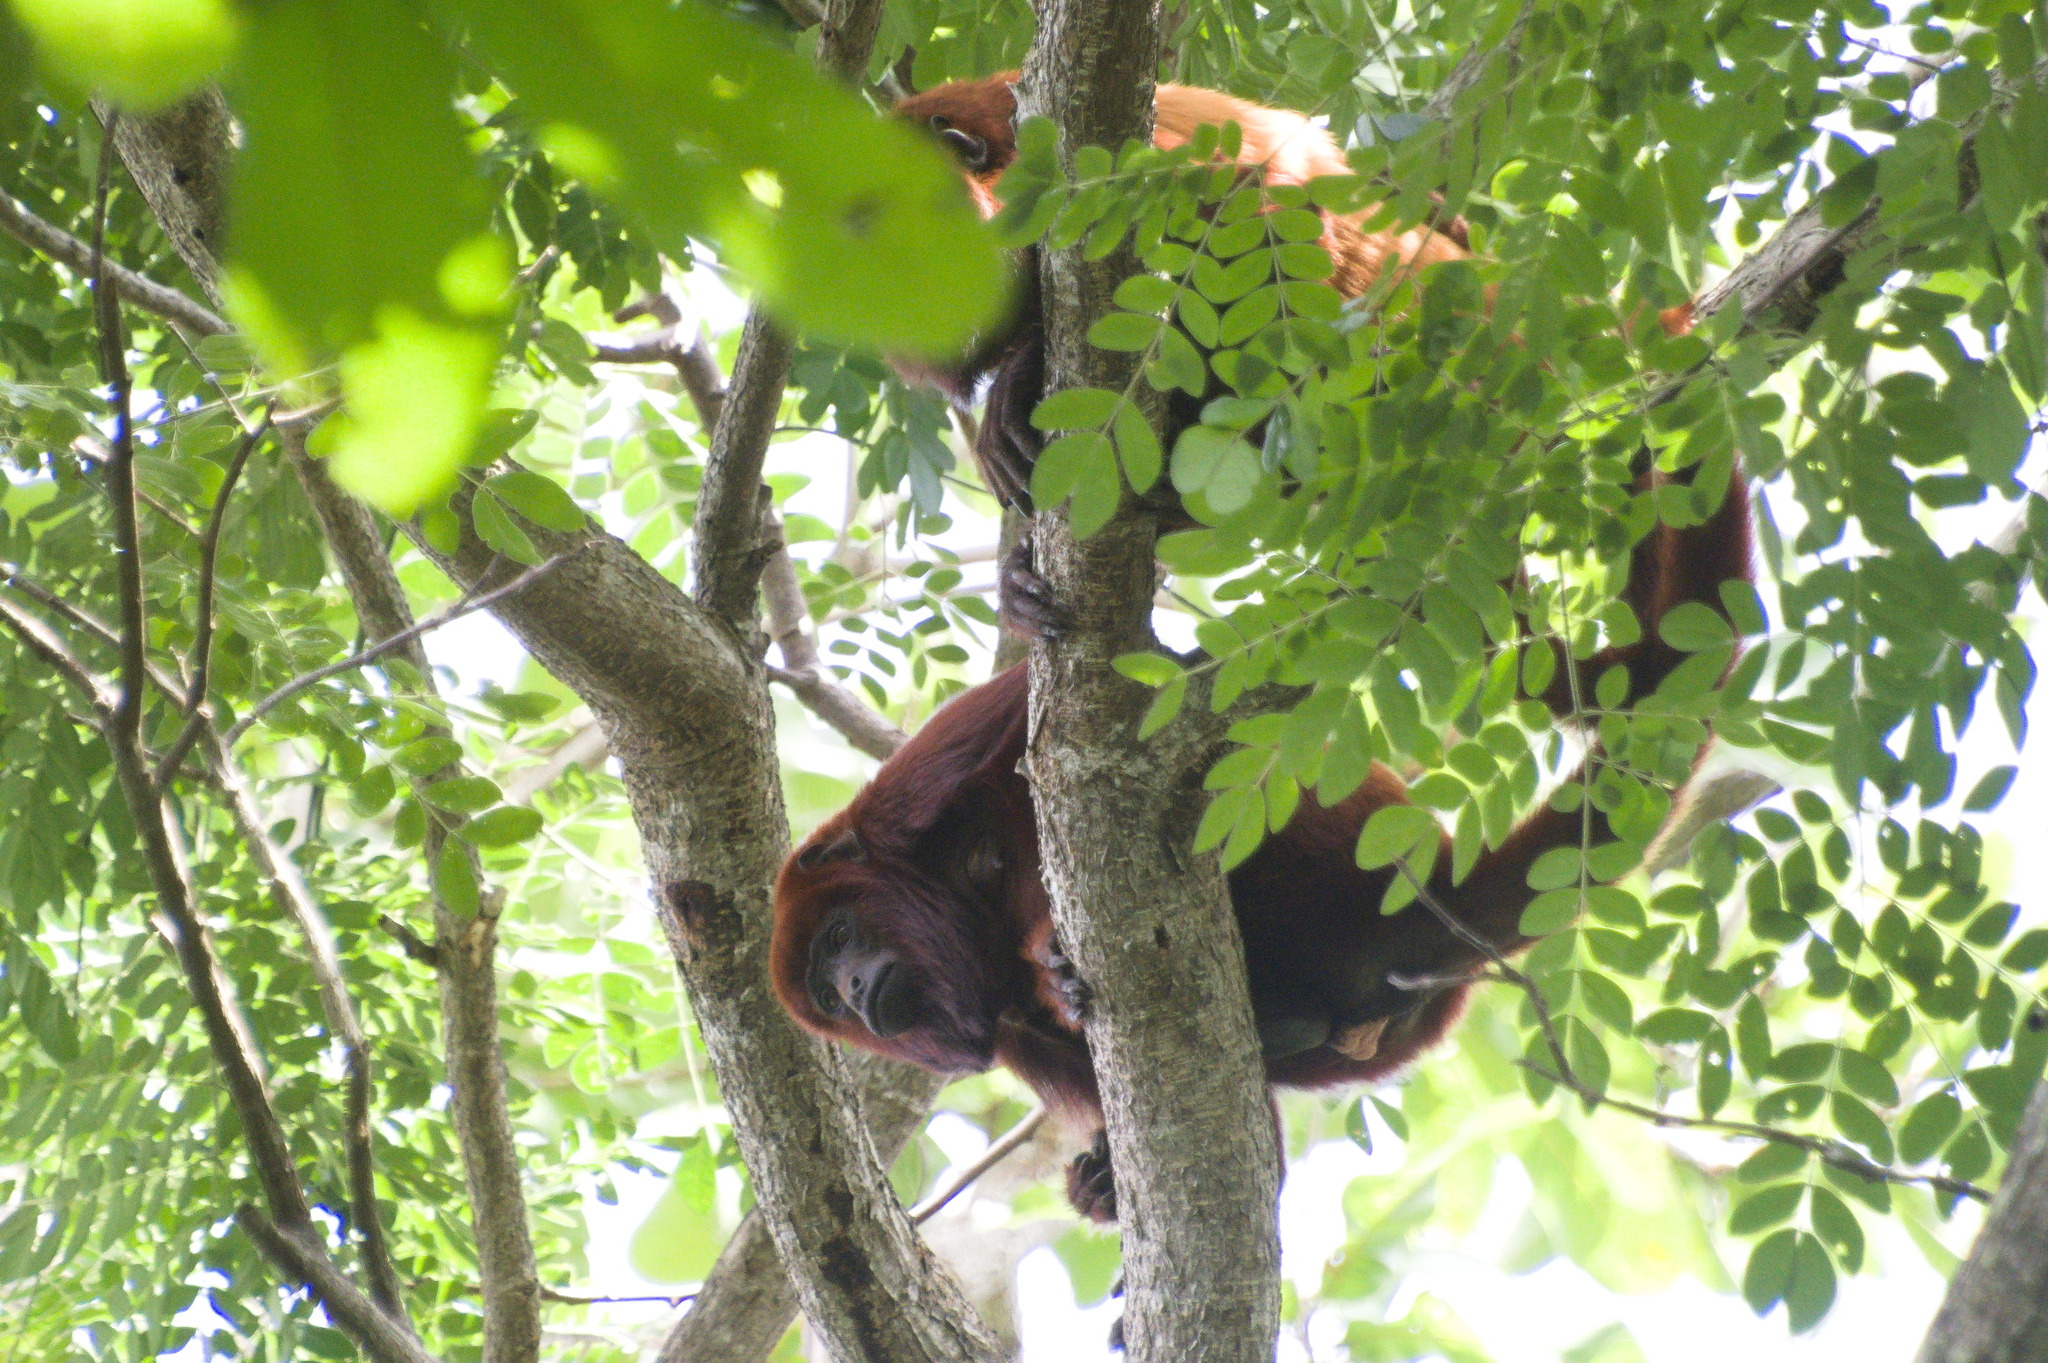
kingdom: Animalia
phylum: Chordata
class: Mammalia
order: Primates
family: Atelidae
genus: Alouatta
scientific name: Alouatta seniculus
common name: Venezuelan red howler
